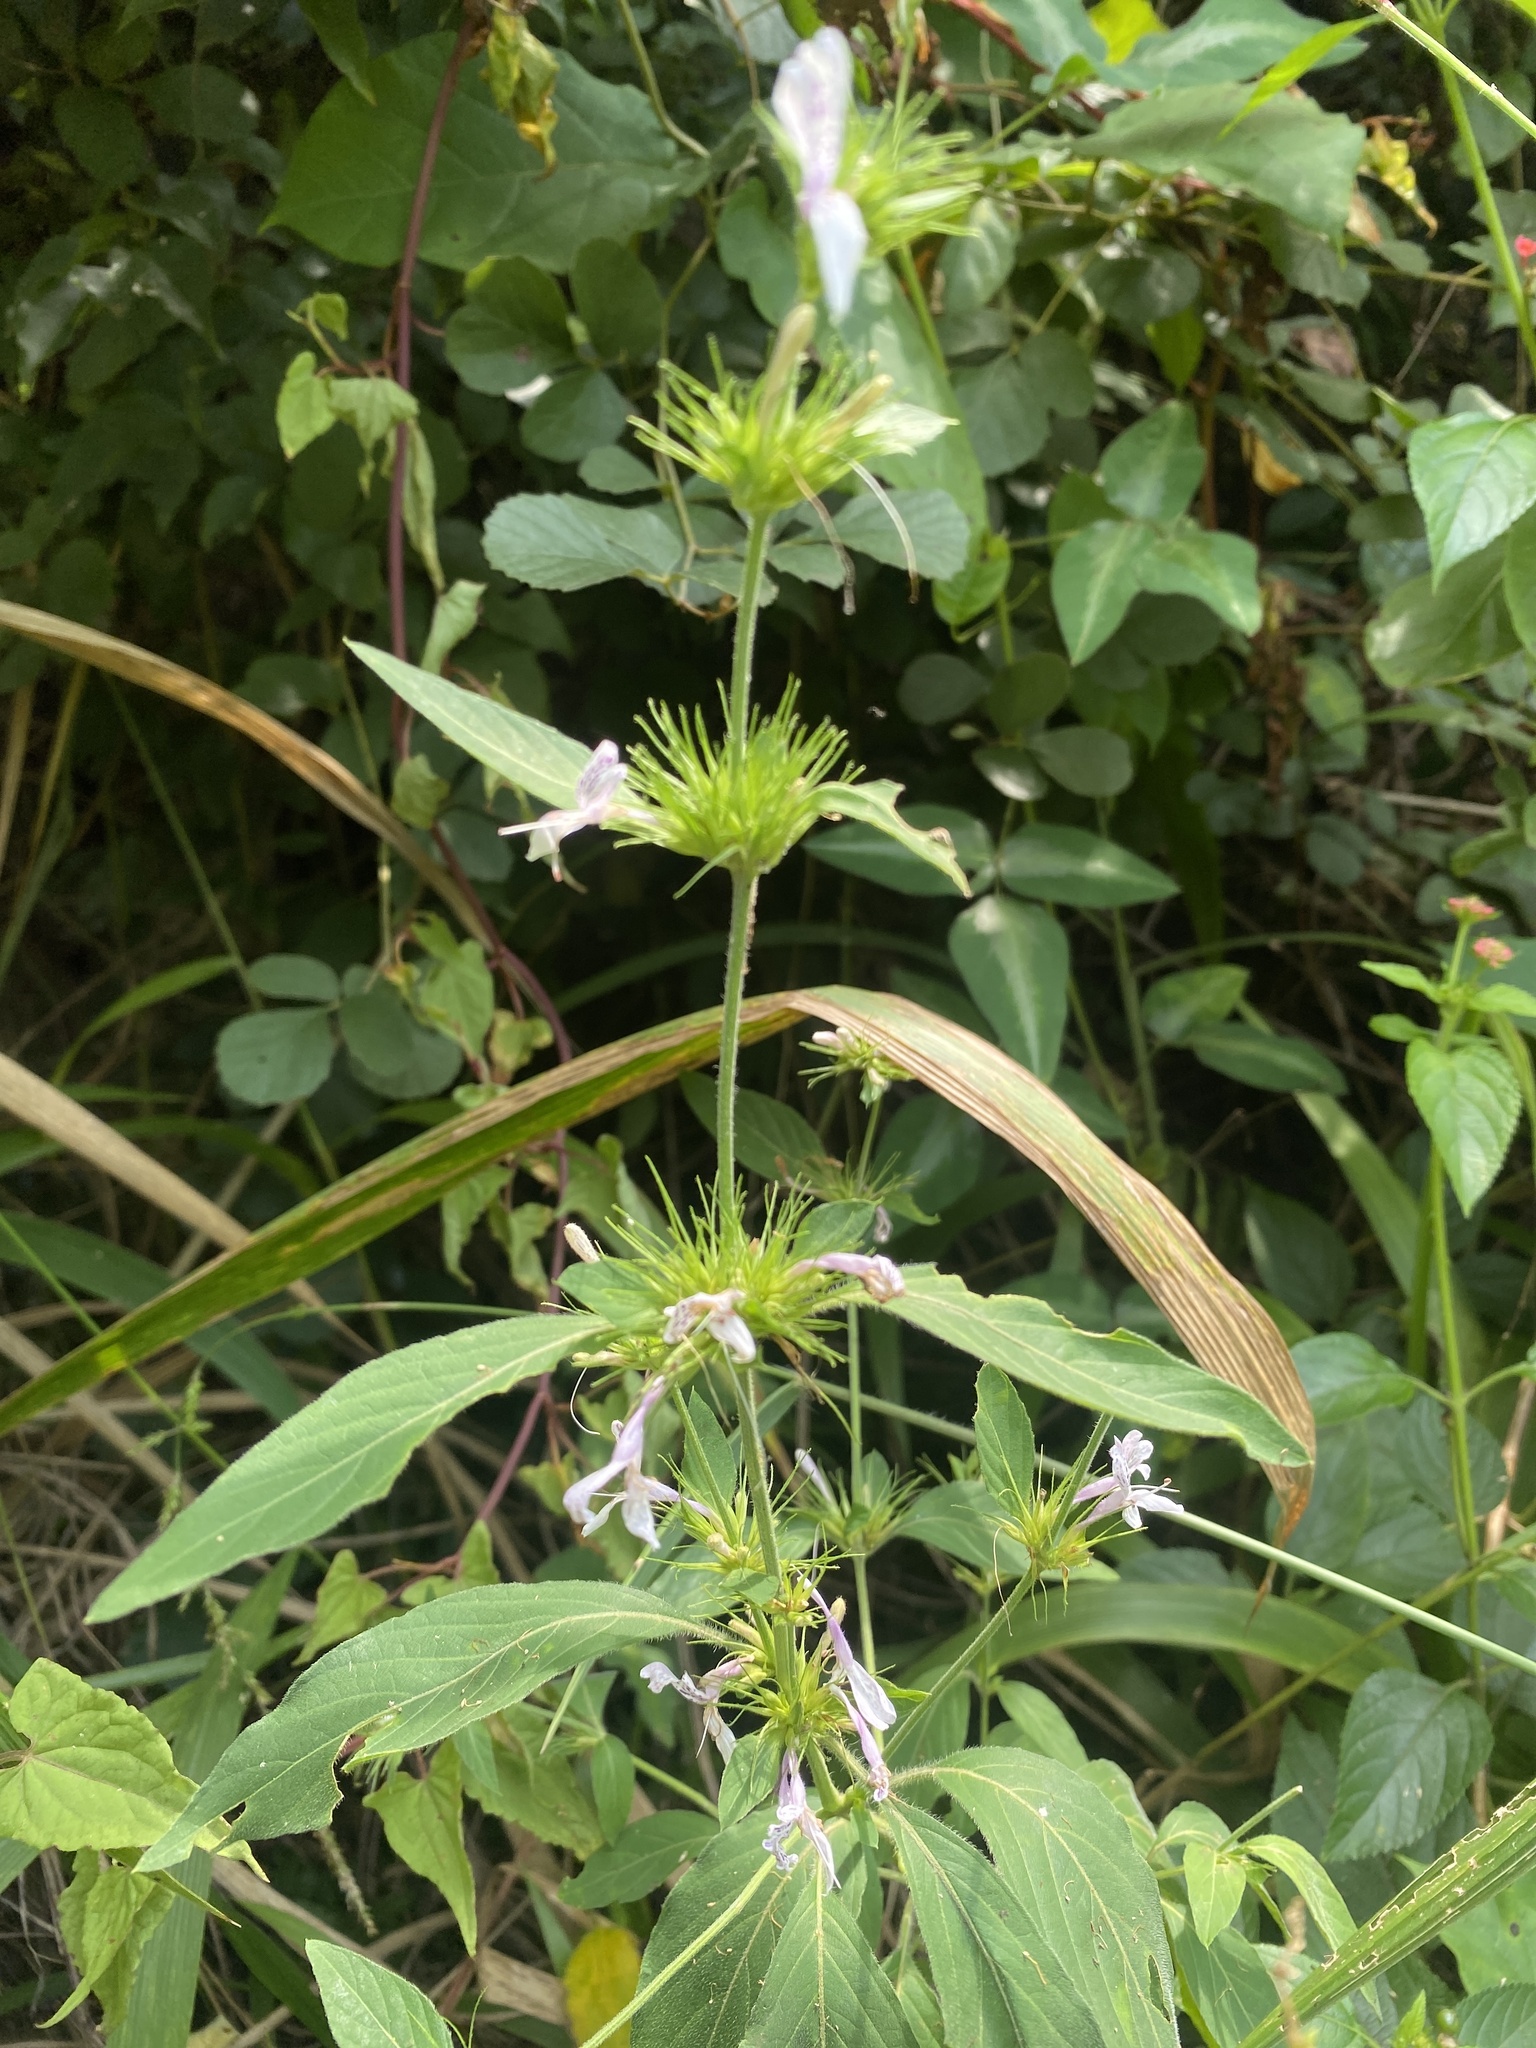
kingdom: Plantae
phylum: Tracheophyta
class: Magnoliopsida
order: Lamiales
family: Acanthaceae
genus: Hypoestes
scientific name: Hypoestes aristata
